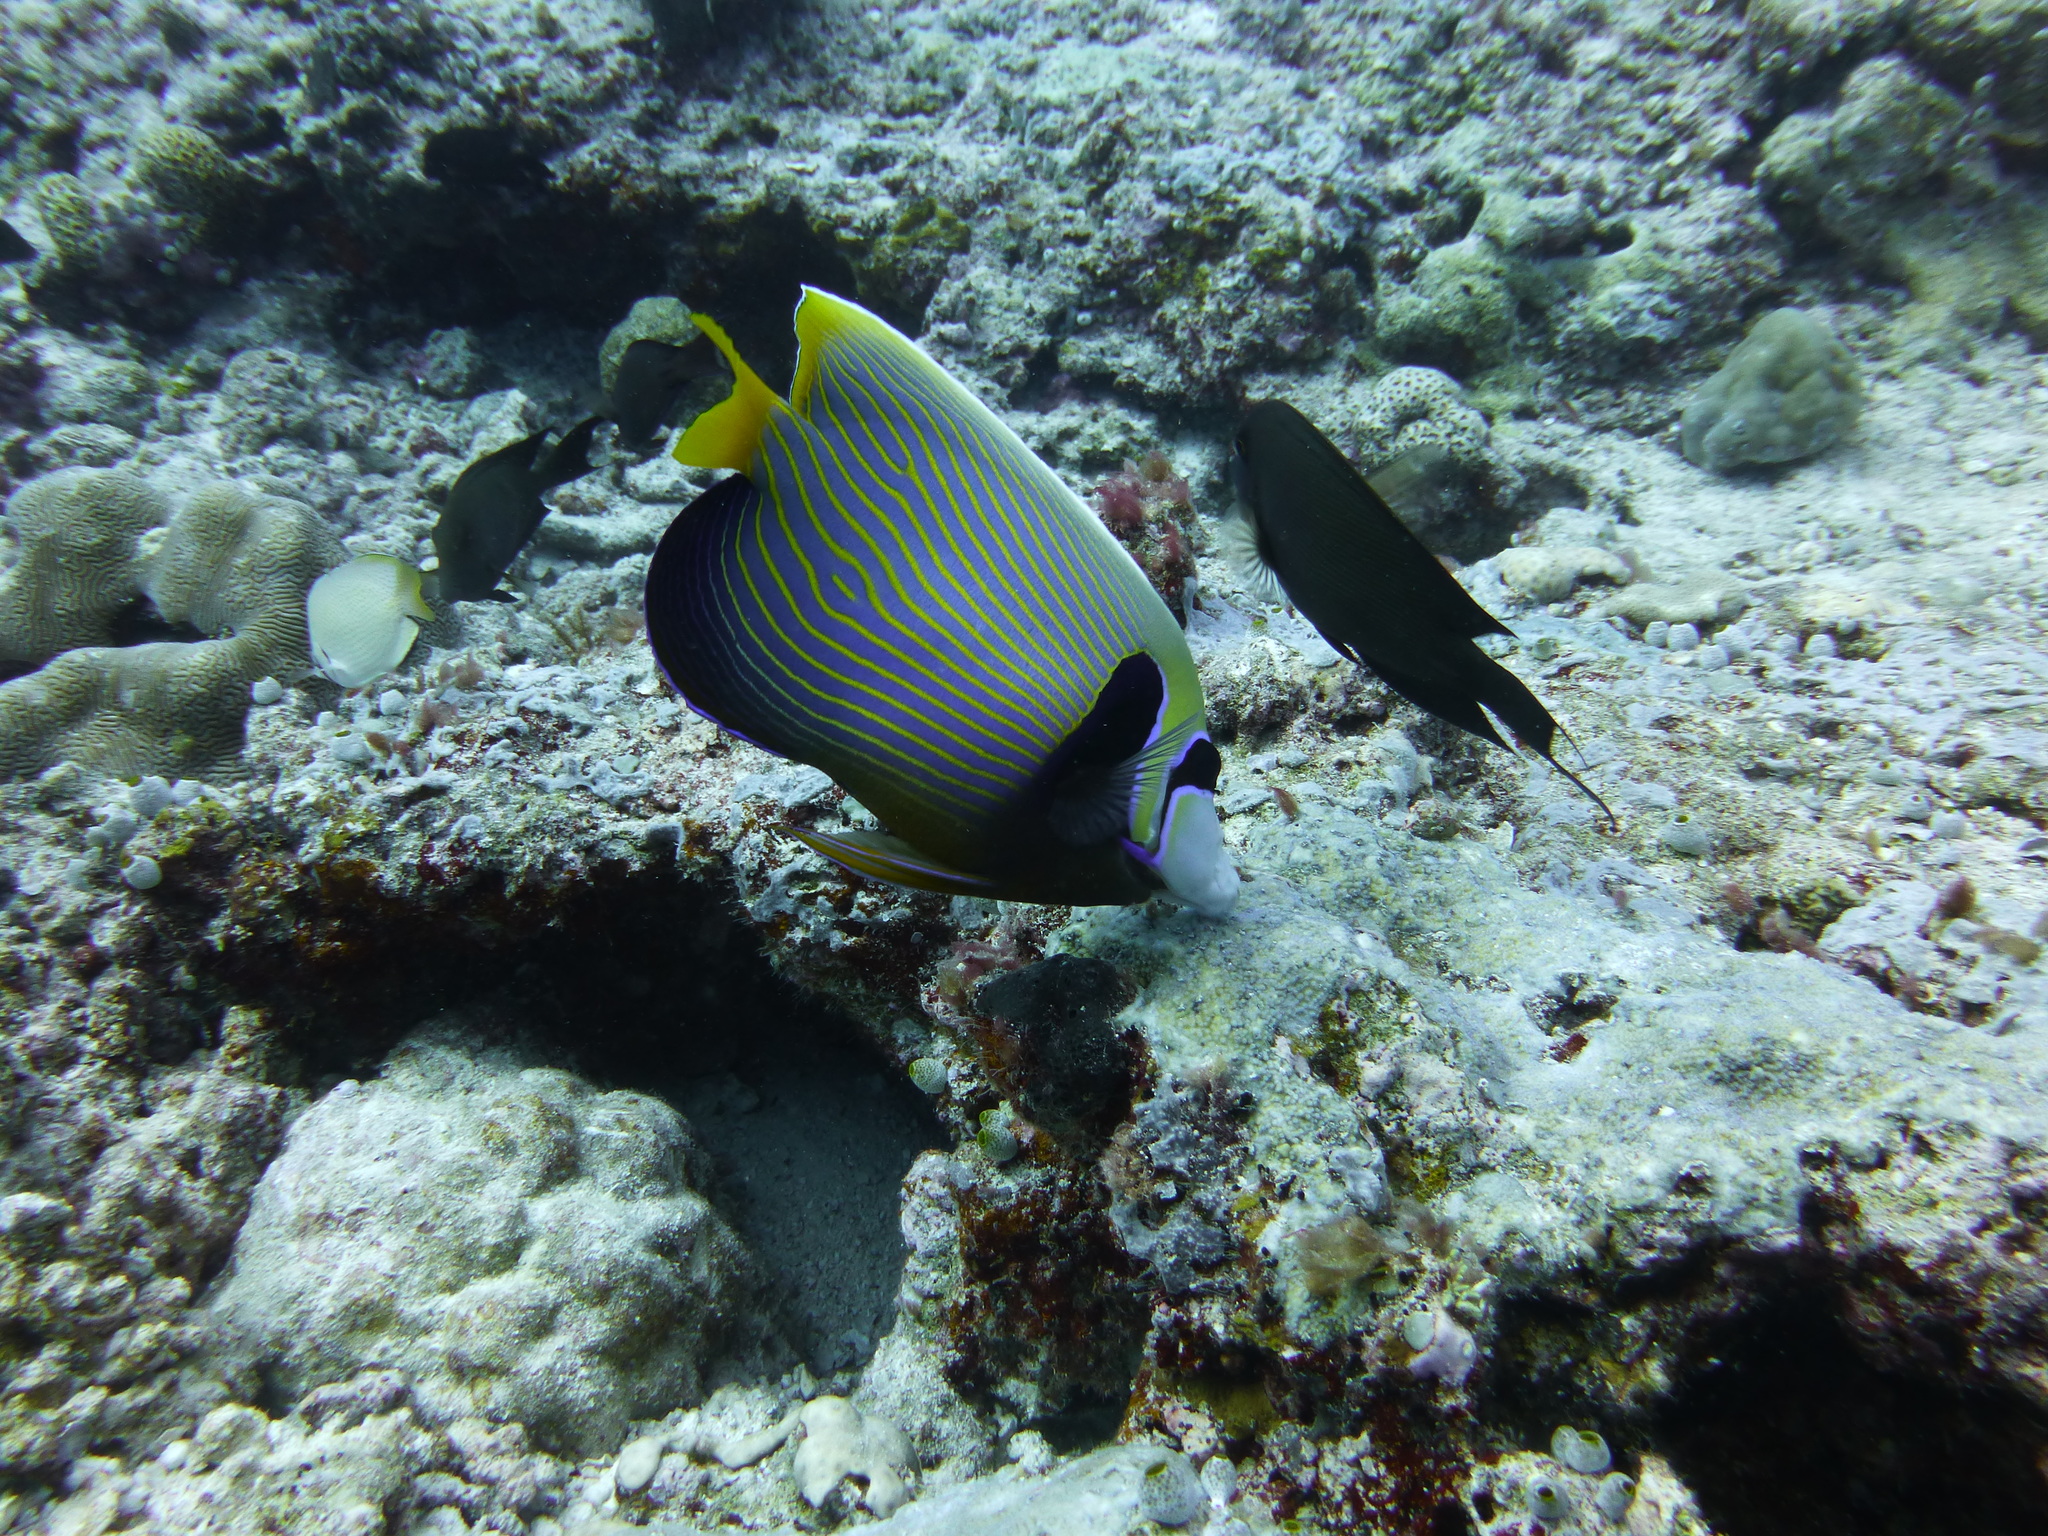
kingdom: Animalia
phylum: Chordata
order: Perciformes
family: Pomacanthidae
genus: Pomacanthus
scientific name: Pomacanthus imperator
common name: Emperor angelfish
